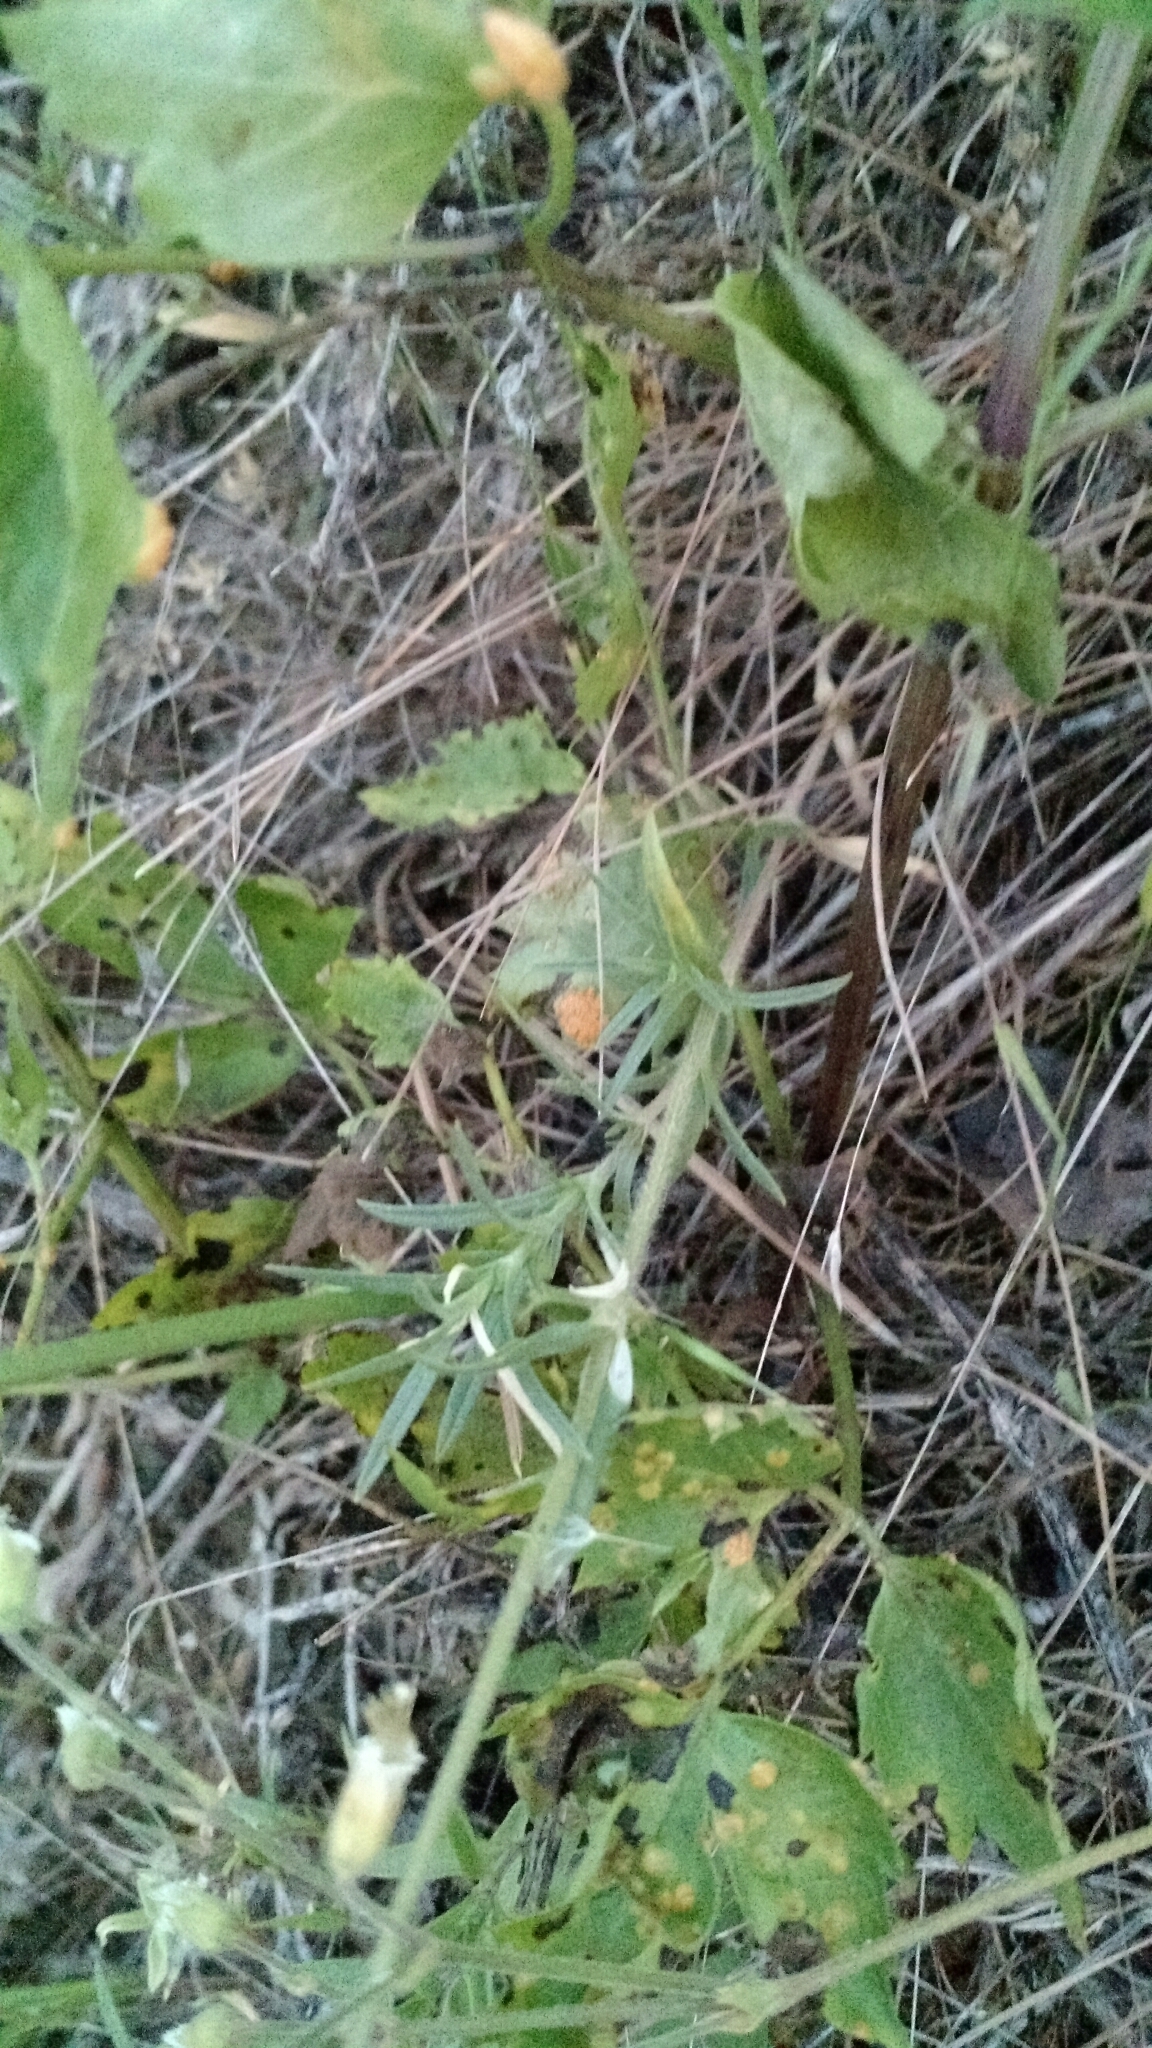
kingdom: Plantae
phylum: Tracheophyta
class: Magnoliopsida
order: Caryophyllales
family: Caryophyllaceae
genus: Cerastium
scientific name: Cerastium arvense
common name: Field mouse-ear
